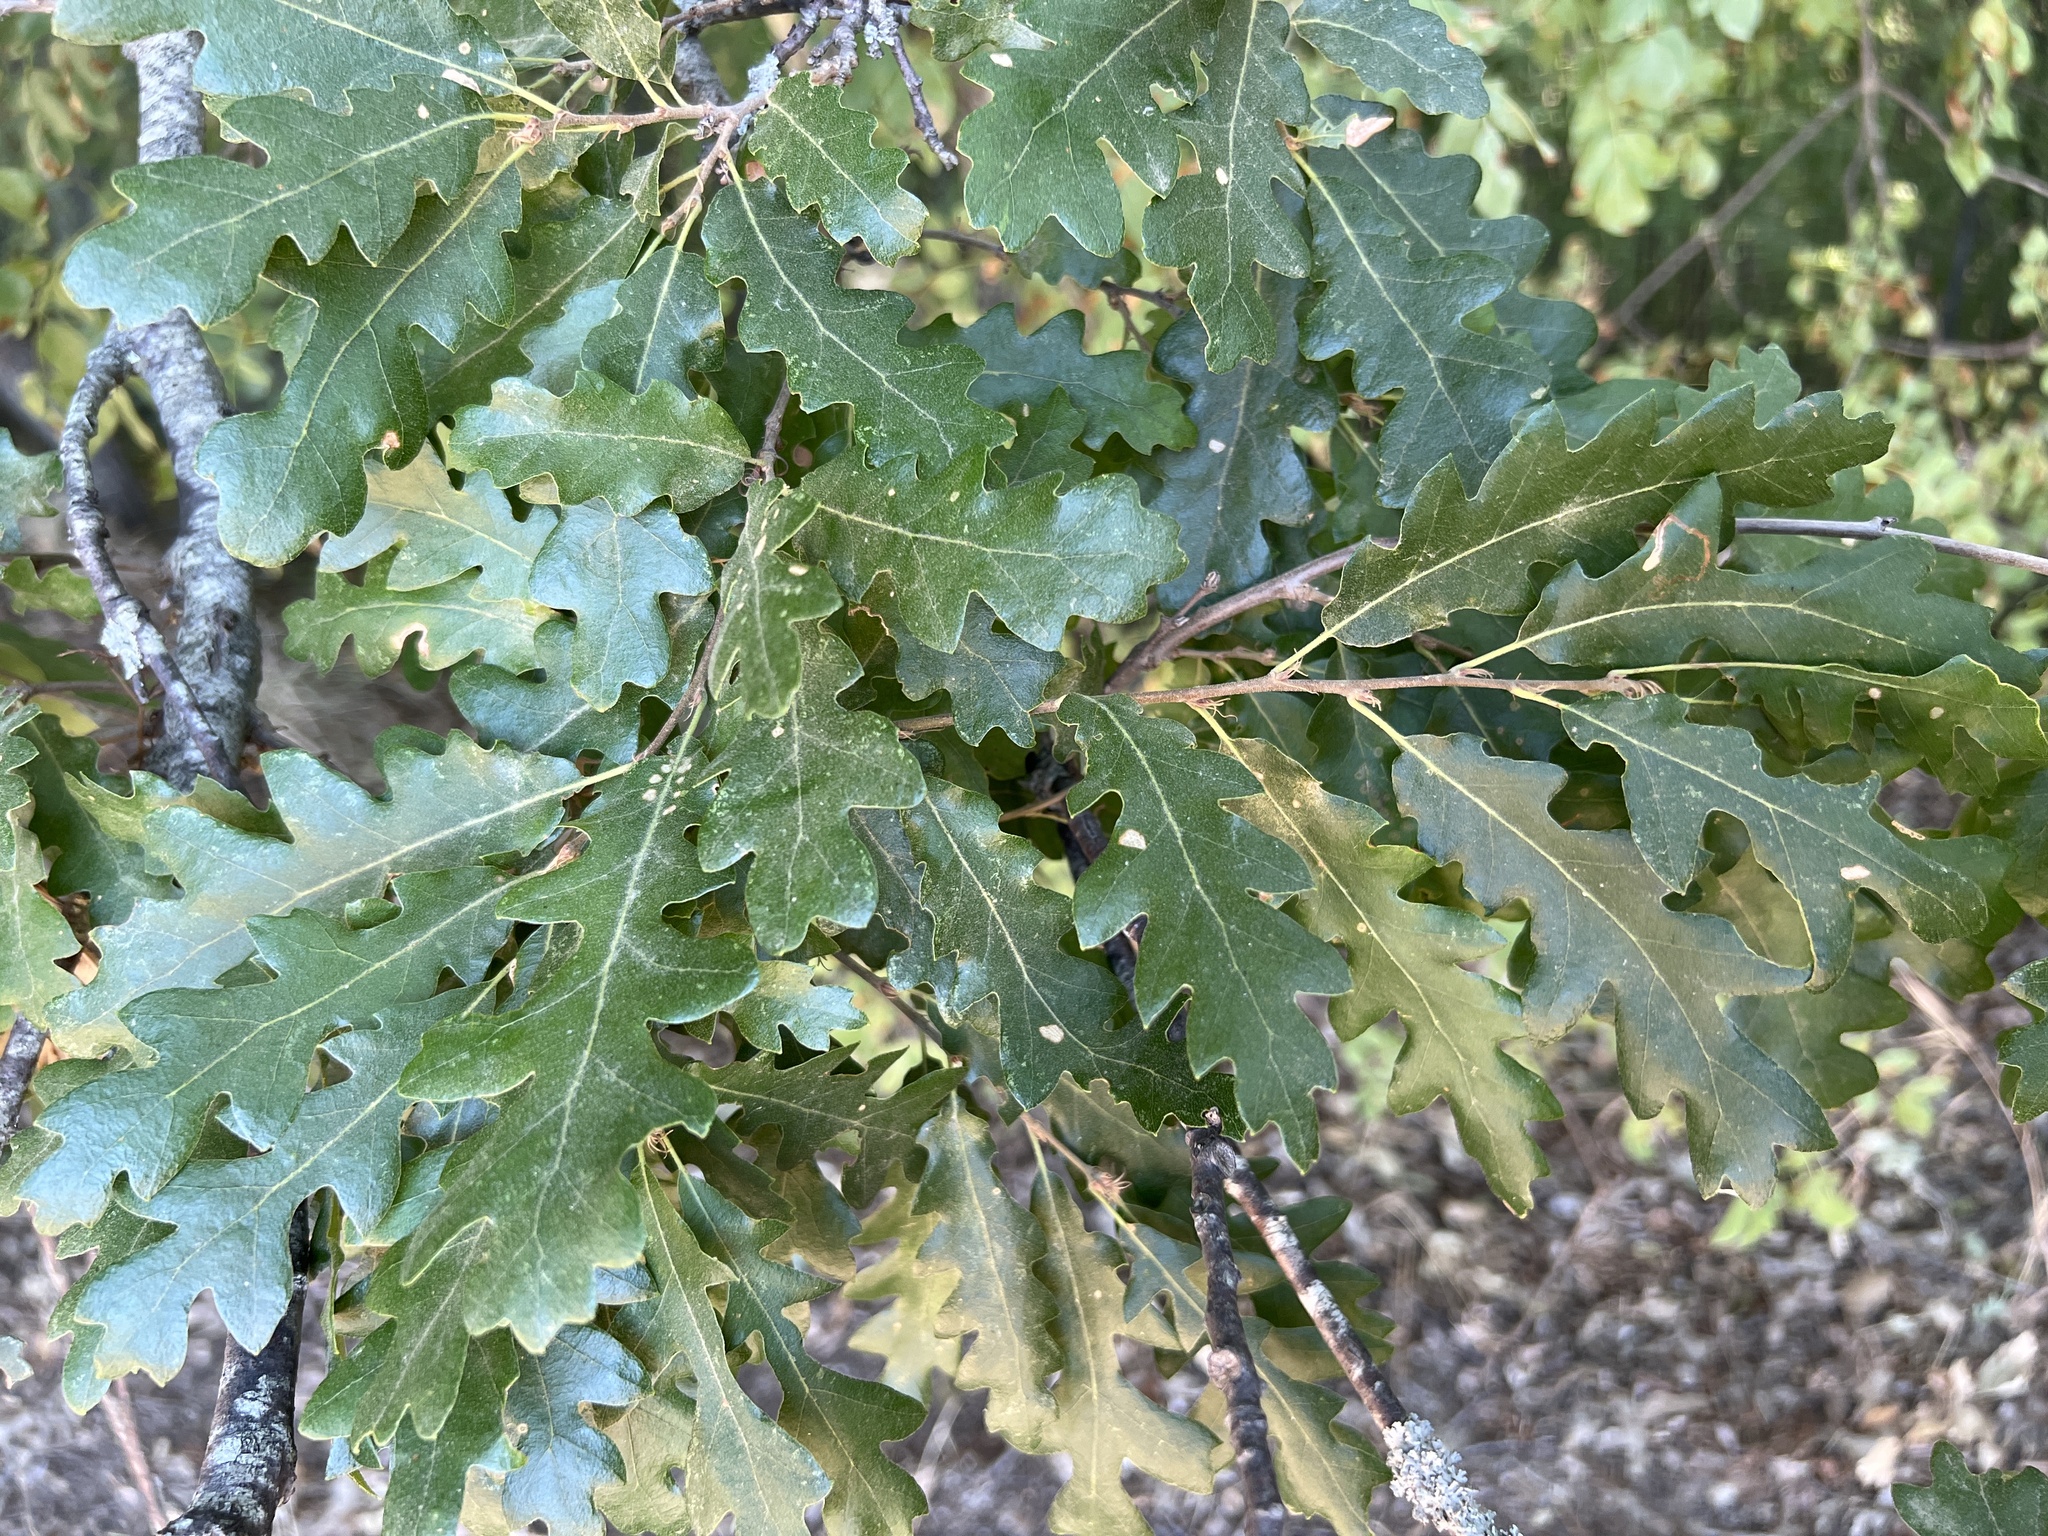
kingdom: Plantae
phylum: Tracheophyta
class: Magnoliopsida
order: Fagales
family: Fagaceae
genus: Quercus
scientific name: Quercus cerris
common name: Turkey oak
